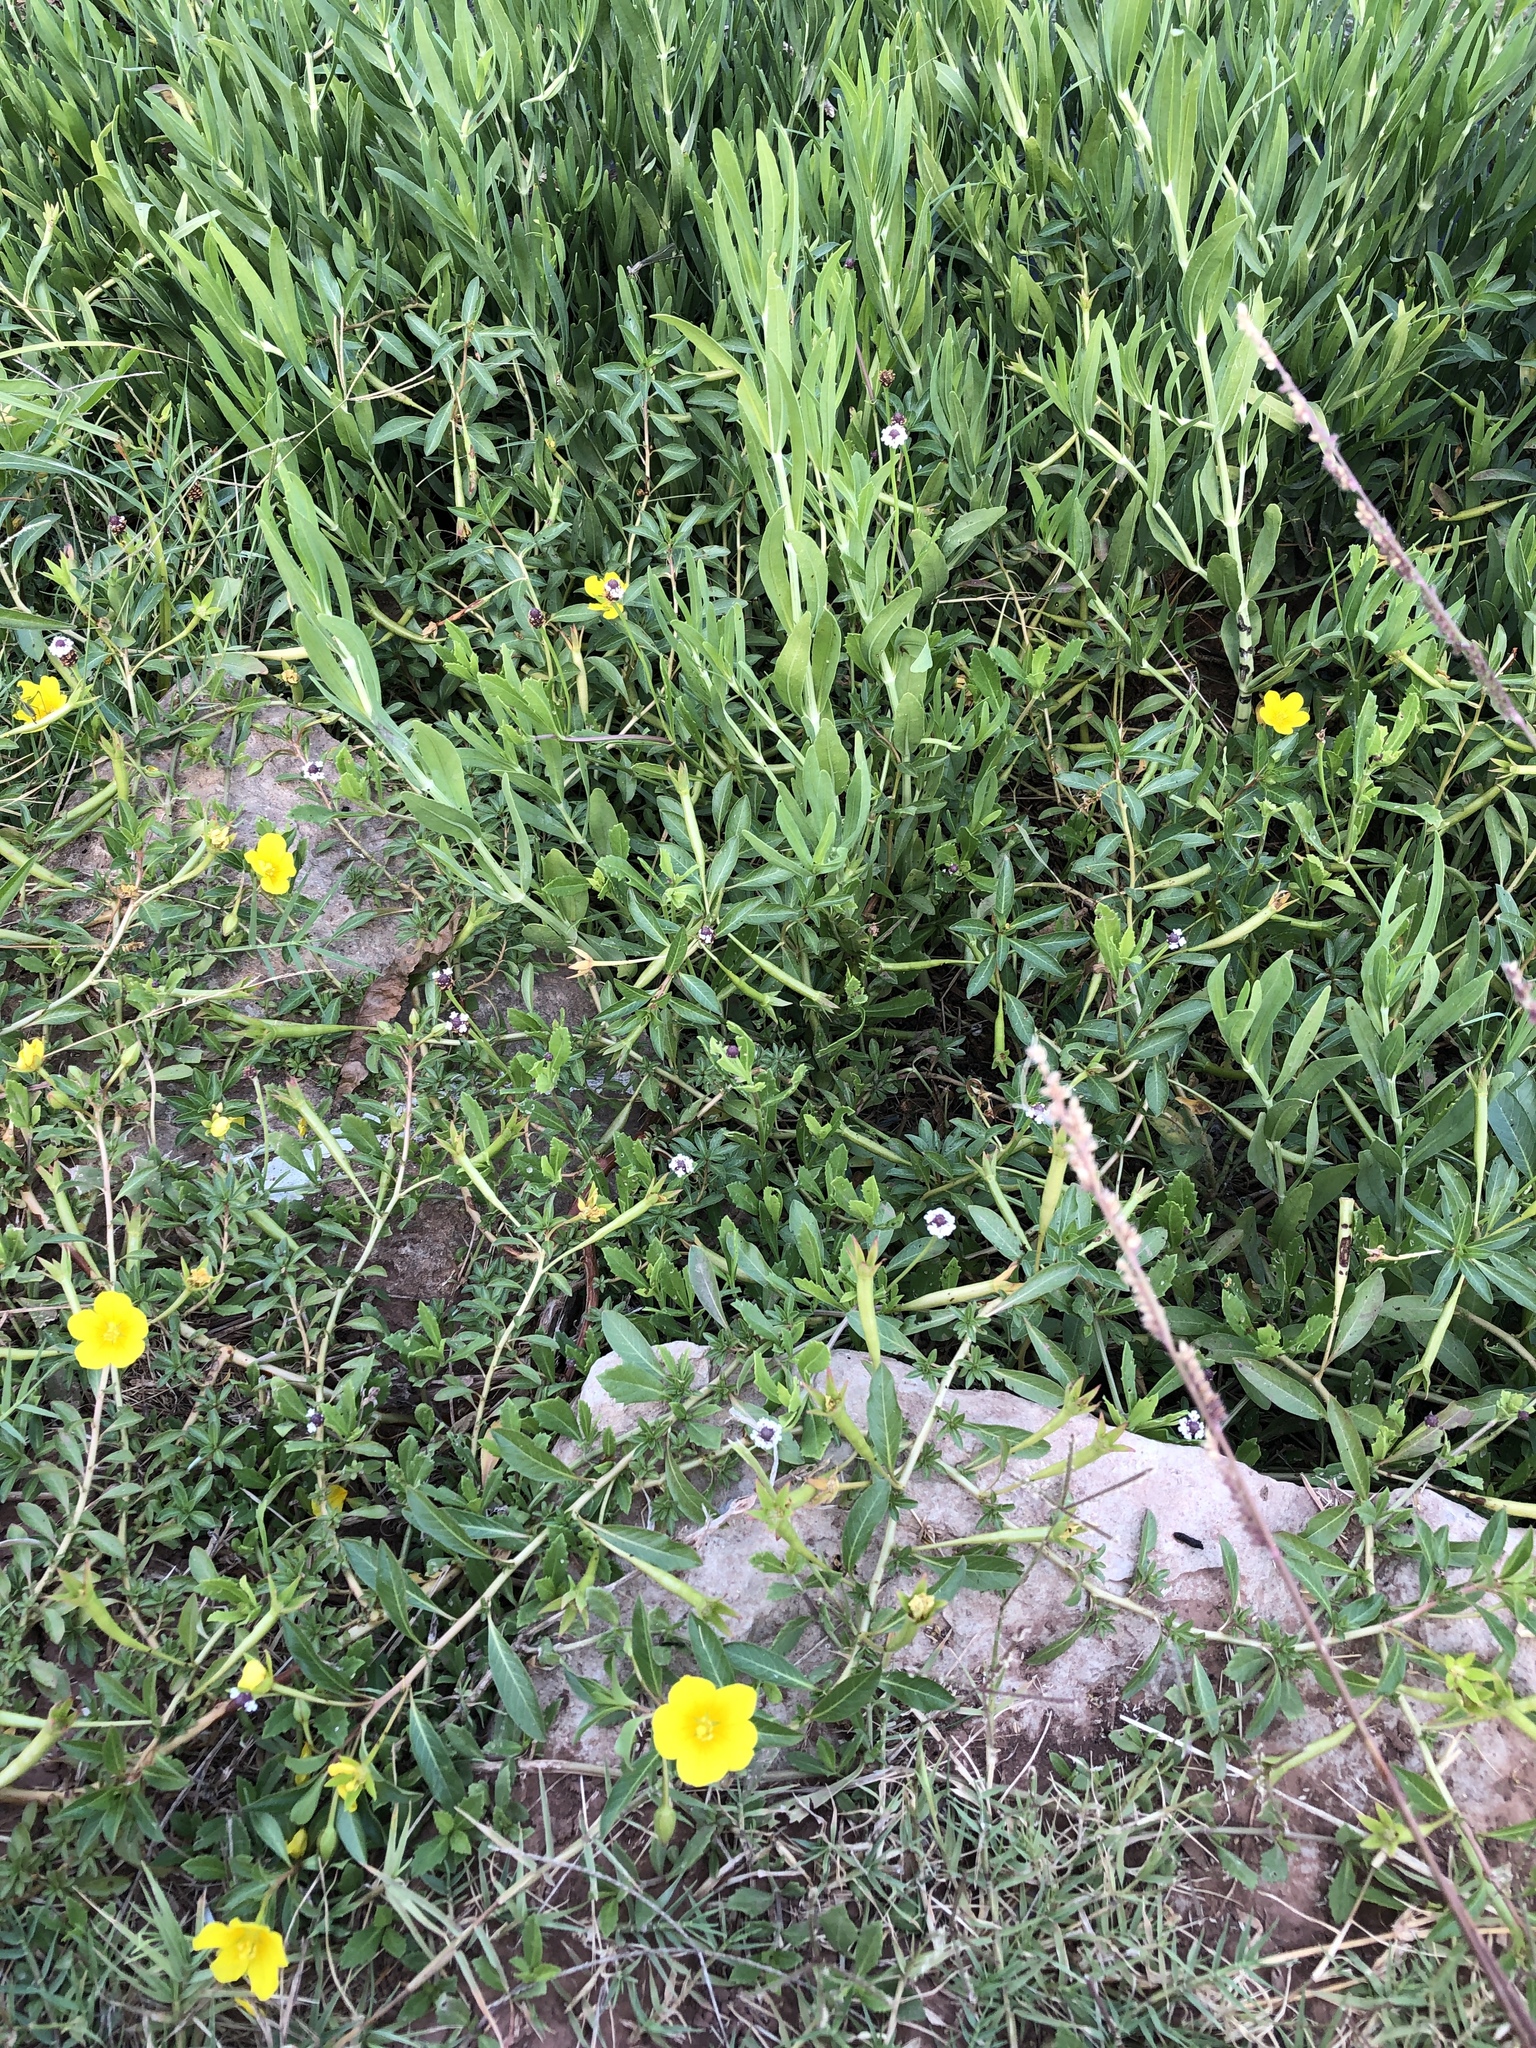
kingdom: Plantae
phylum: Tracheophyta
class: Magnoliopsida
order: Myrtales
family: Onagraceae
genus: Ludwigia
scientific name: Ludwigia peploides
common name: Floating primrose-willow
